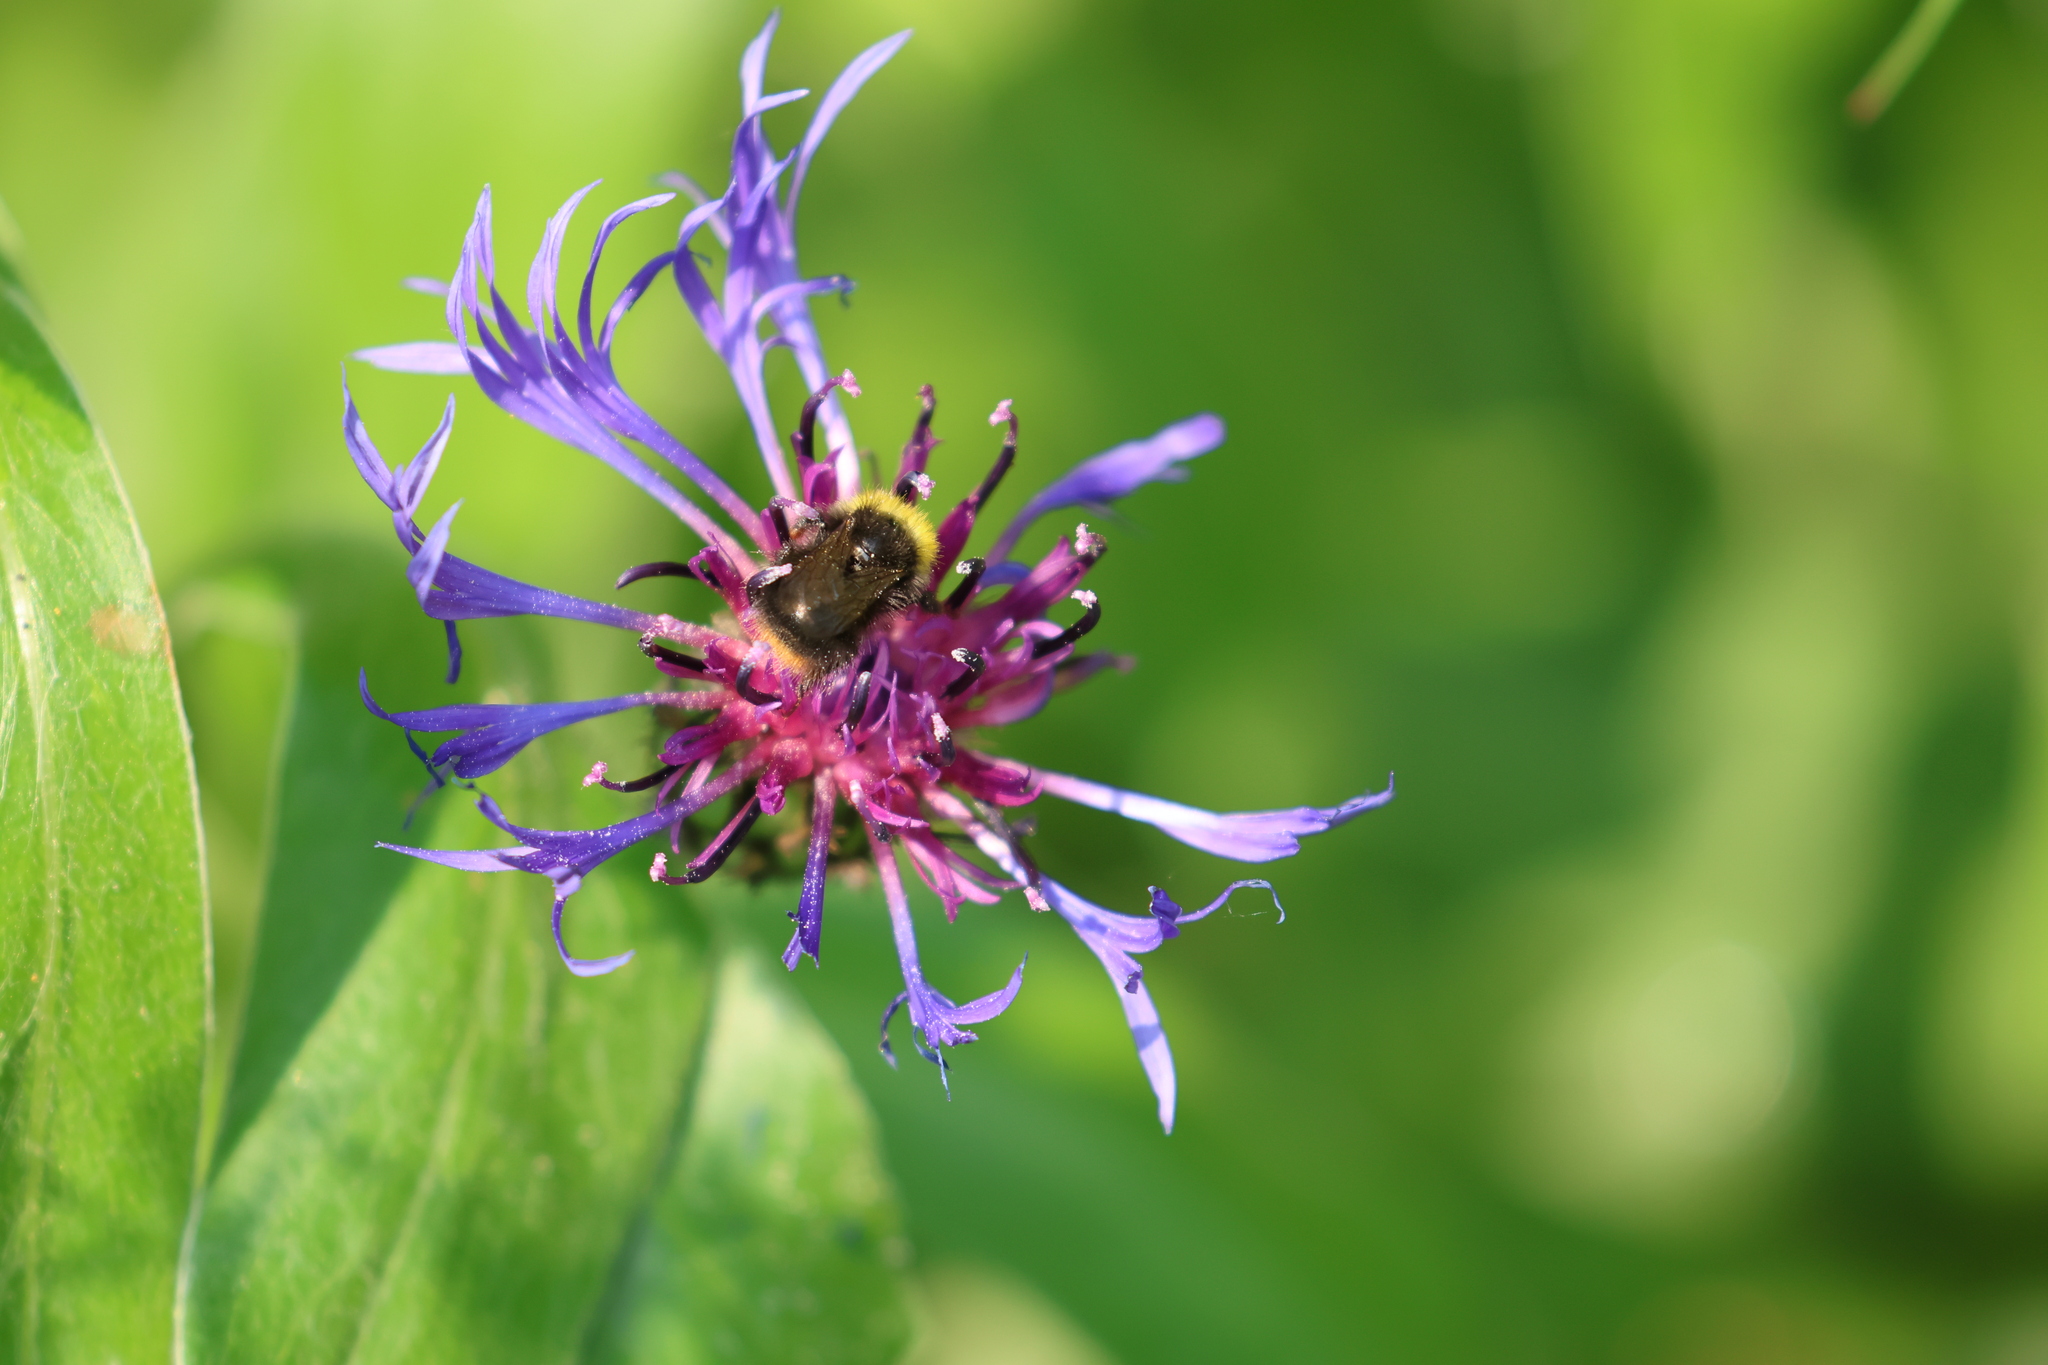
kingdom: Animalia
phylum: Arthropoda
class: Insecta
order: Hymenoptera
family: Apidae
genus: Bombus
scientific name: Bombus pratorum
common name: Early humble-bee
